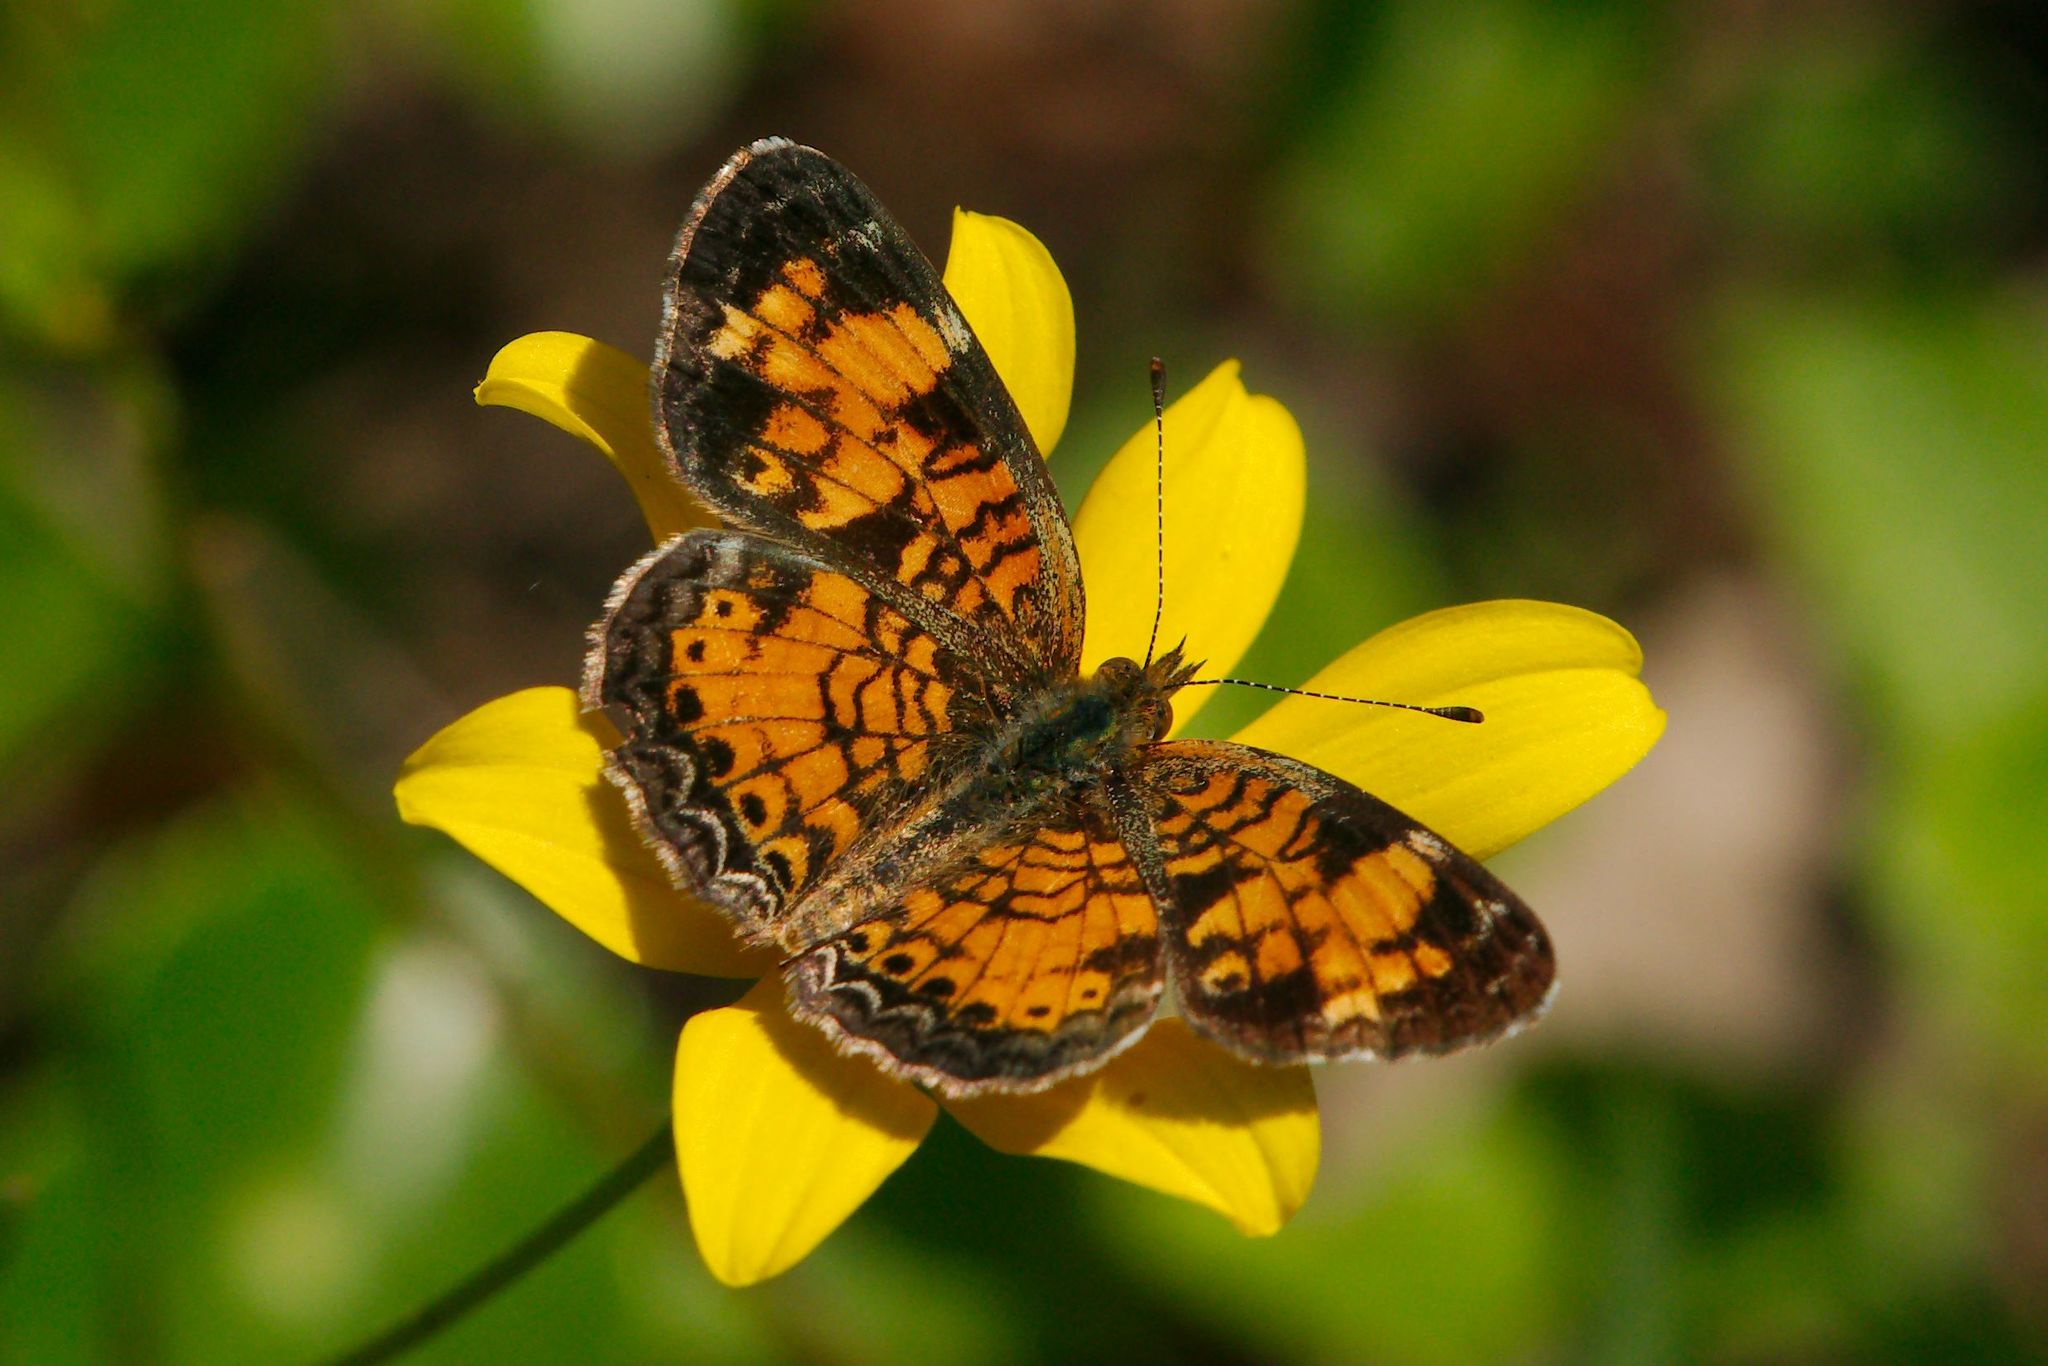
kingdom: Animalia
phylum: Arthropoda
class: Insecta
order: Lepidoptera
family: Nymphalidae
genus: Phyciodes
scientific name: Phyciodes tharos
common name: Pearl crescent
